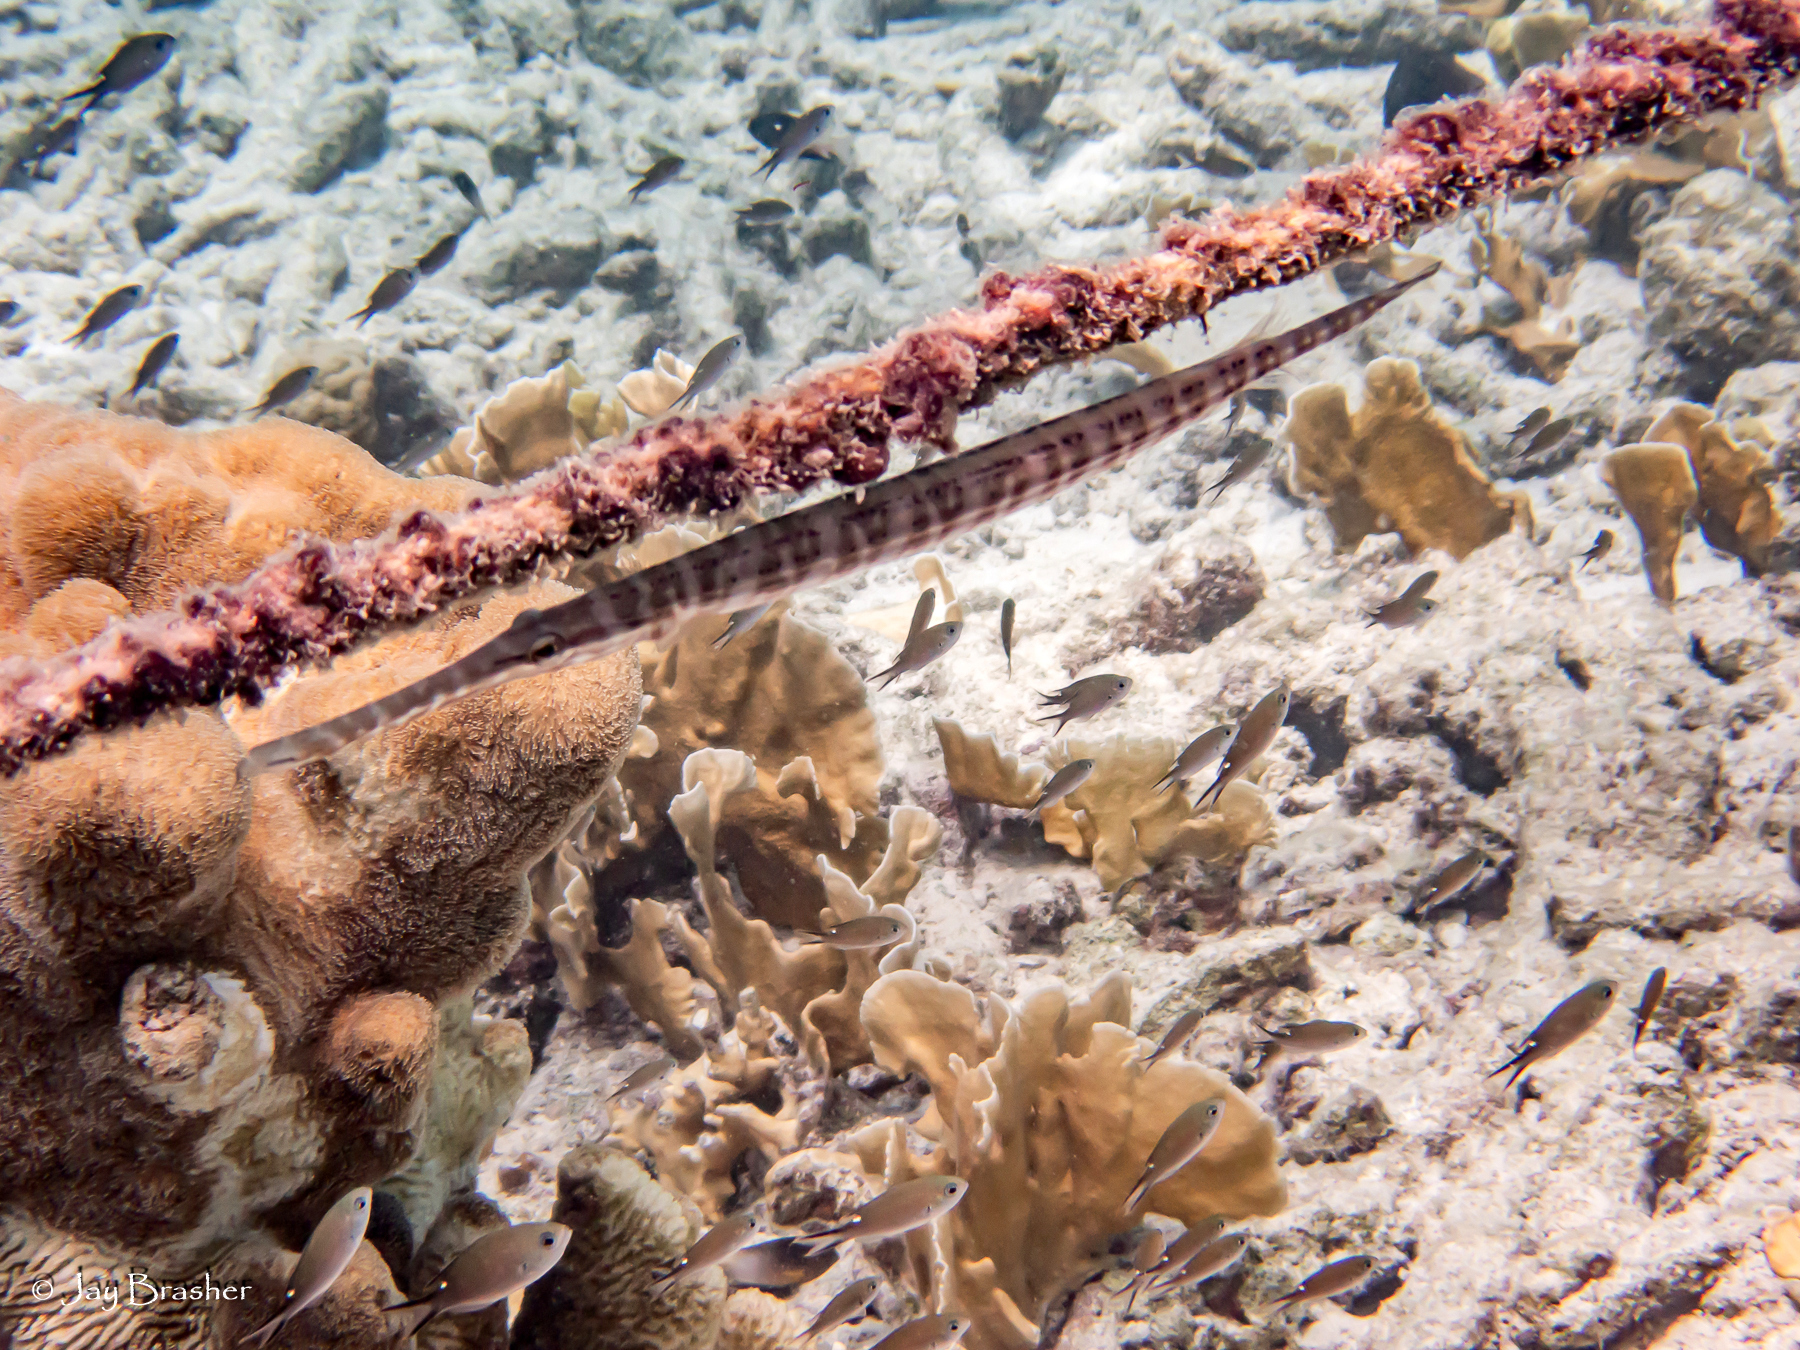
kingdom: Animalia
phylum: Chordata
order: Syngnathiformes
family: Aulostomidae
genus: Aulostomus
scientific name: Aulostomus maculatus
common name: West atlantic trumpetfish
